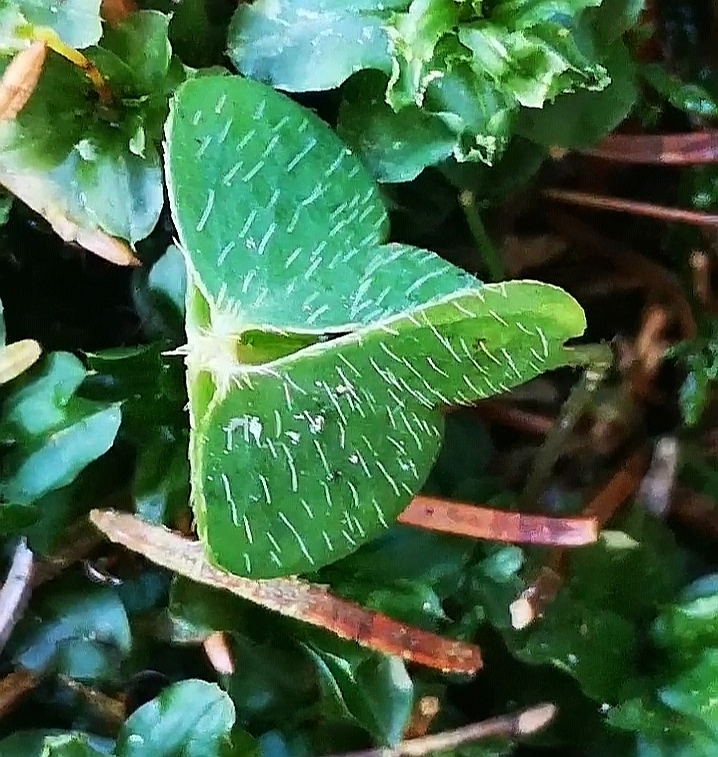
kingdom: Plantae
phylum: Tracheophyta
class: Magnoliopsida
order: Oxalidales
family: Oxalidaceae
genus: Oxalis
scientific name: Oxalis acetosella
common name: Wood-sorrel
